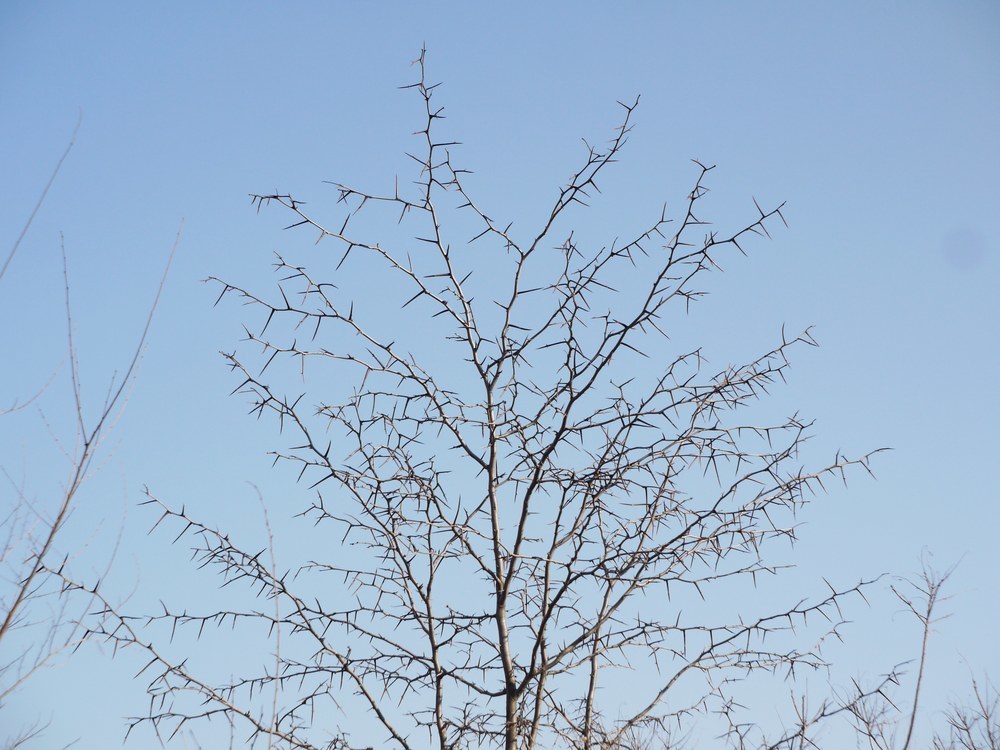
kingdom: Plantae
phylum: Tracheophyta
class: Magnoliopsida
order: Fabales
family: Fabaceae
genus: Gleditsia
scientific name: Gleditsia triacanthos
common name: Common honeylocust
